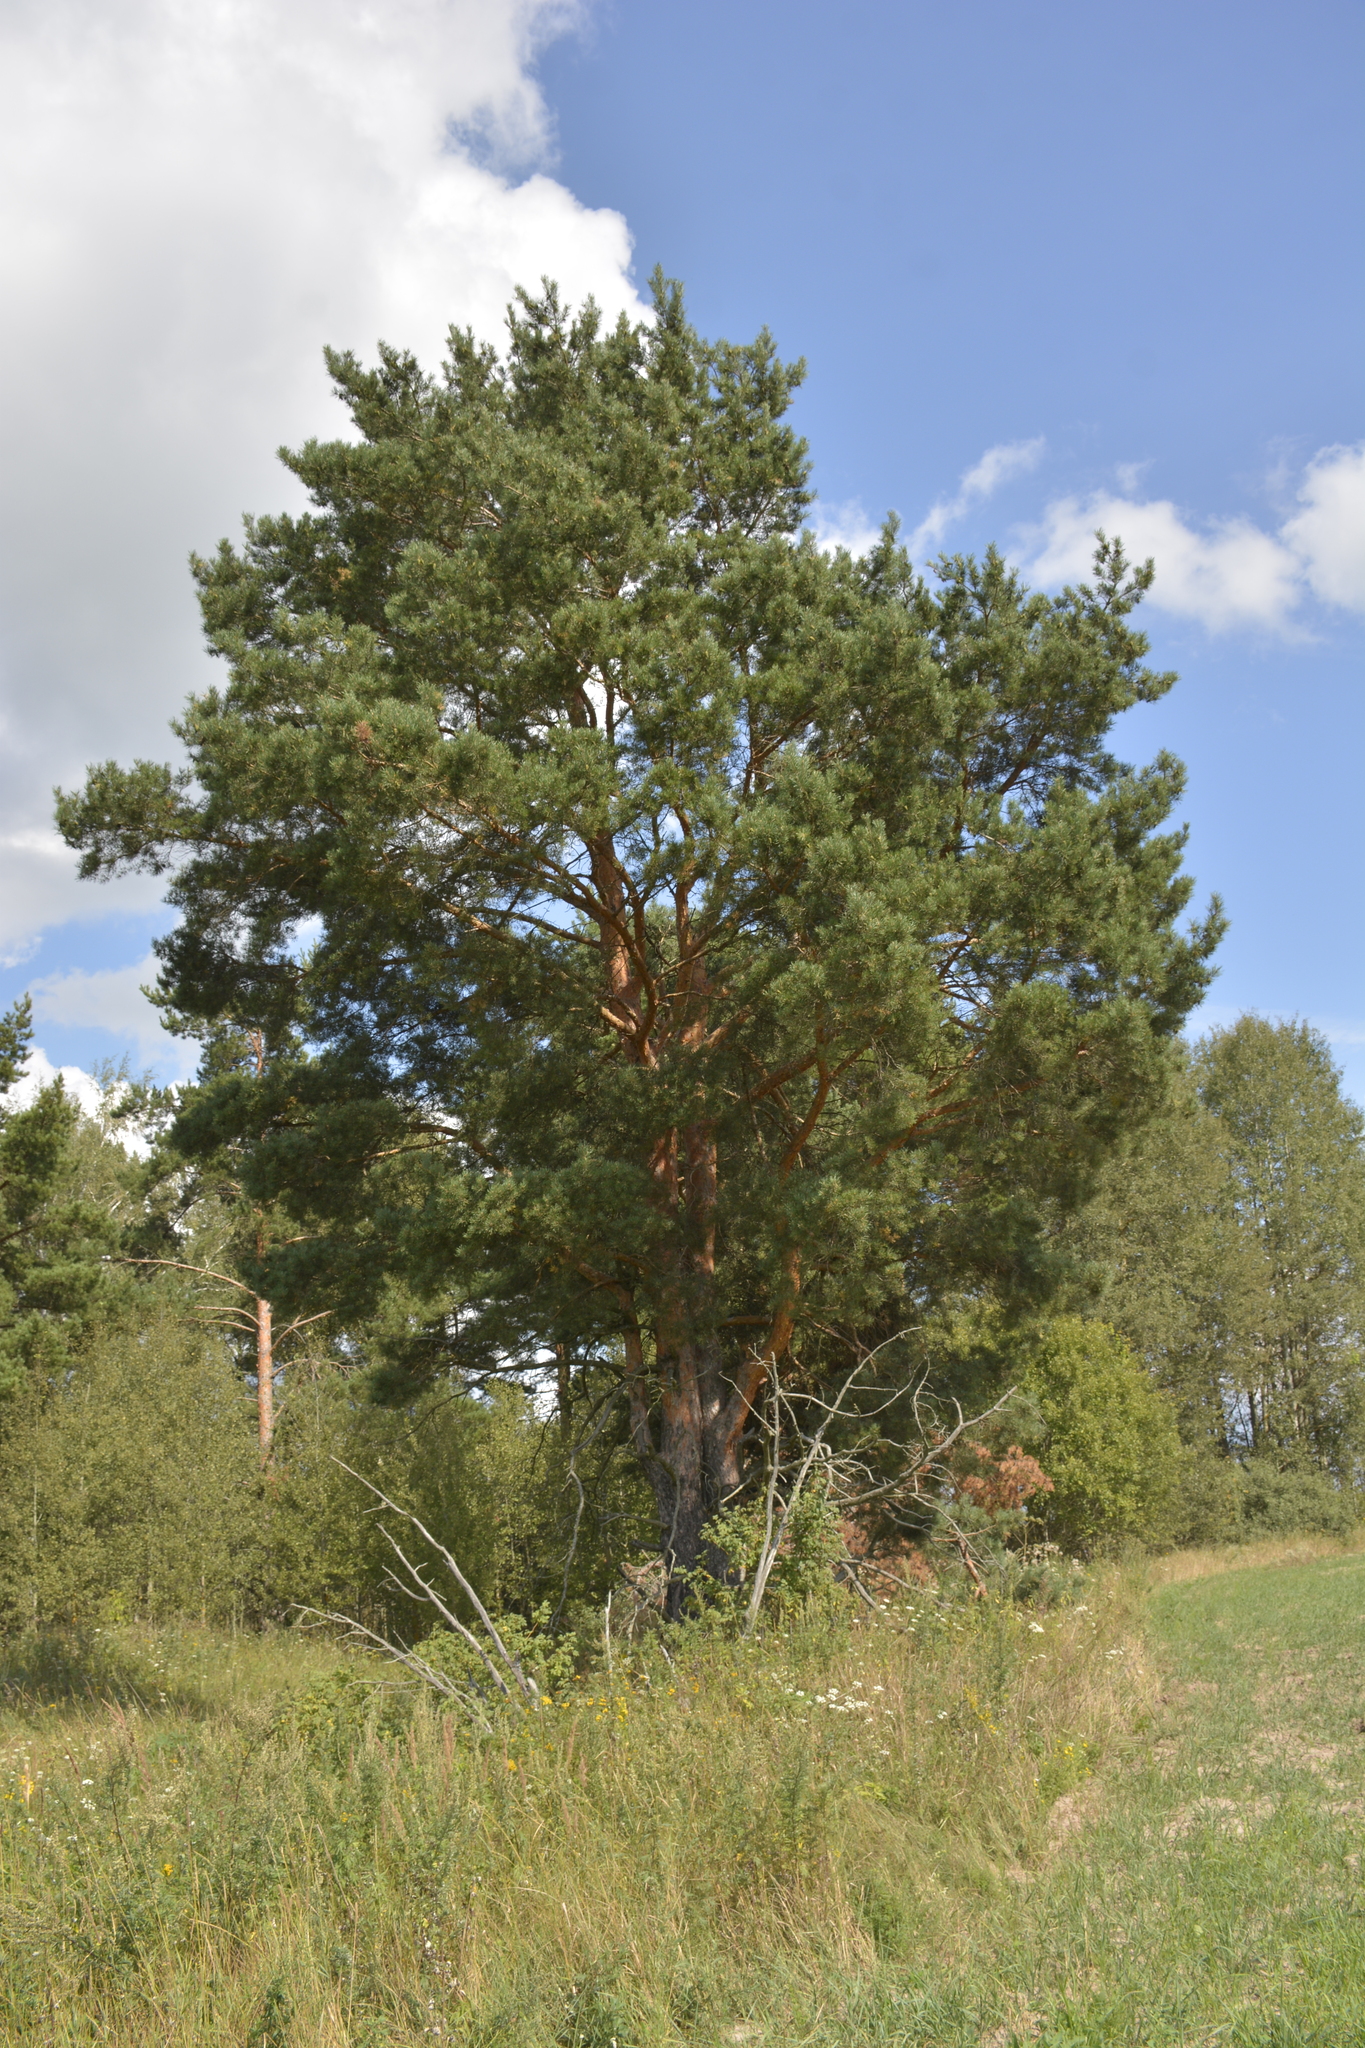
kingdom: Plantae
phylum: Tracheophyta
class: Pinopsida
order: Pinales
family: Pinaceae
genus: Pinus
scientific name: Pinus sylvestris
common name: Scots pine
